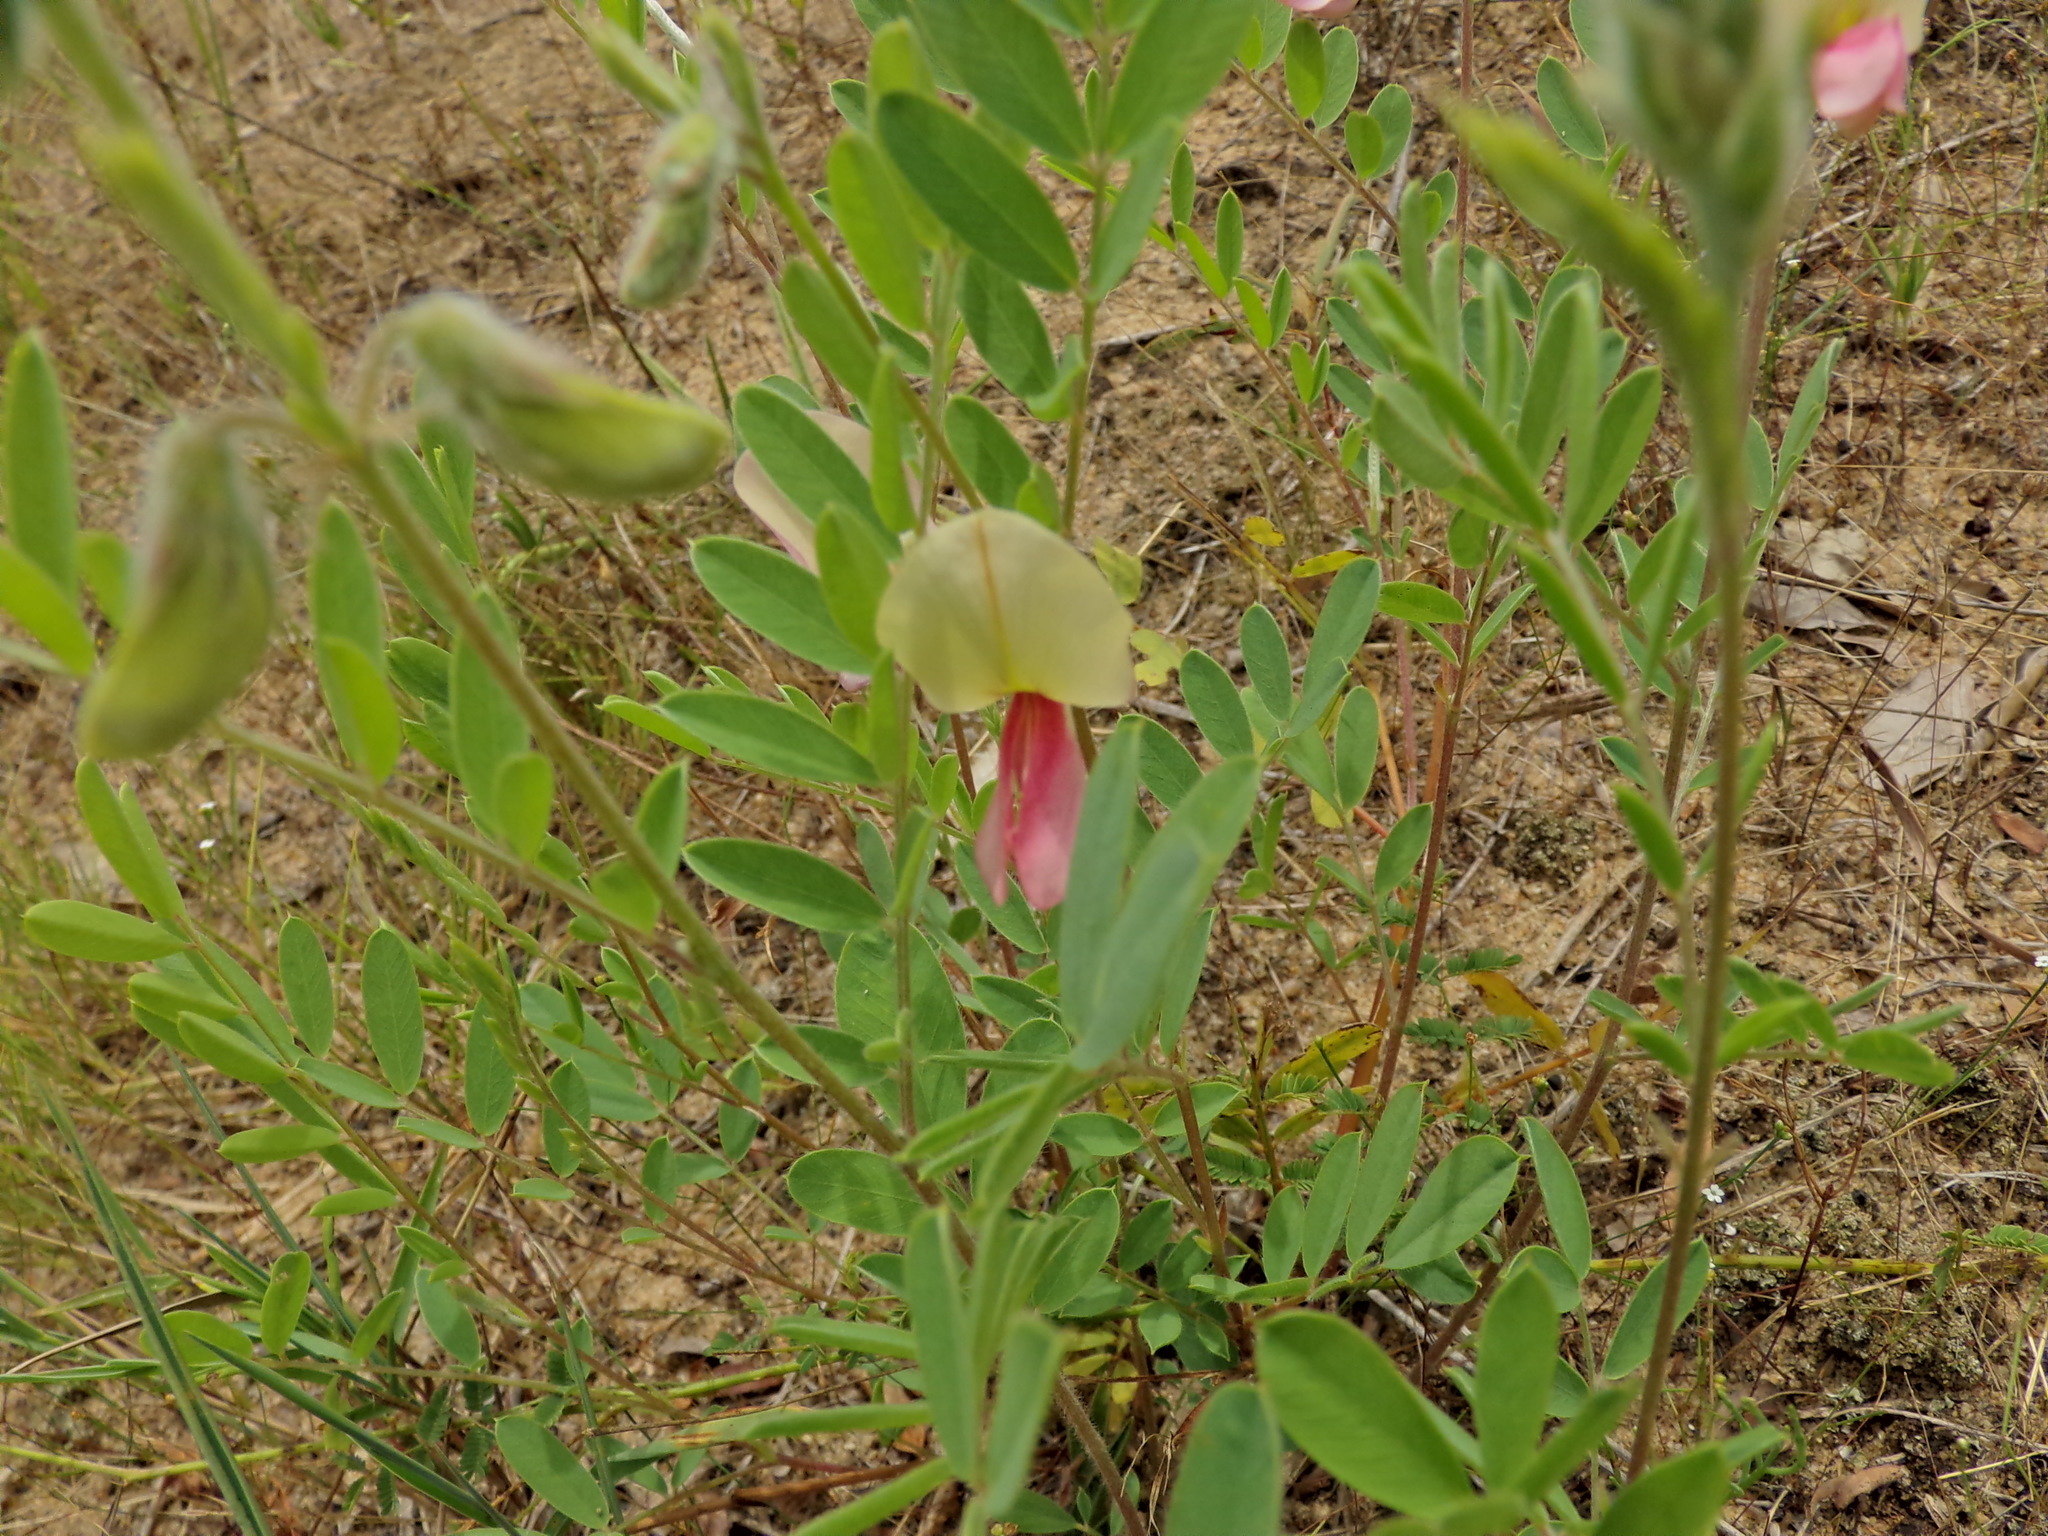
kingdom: Plantae
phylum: Tracheophyta
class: Magnoliopsida
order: Fabales
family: Fabaceae
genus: Tephrosia
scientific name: Tephrosia virginiana
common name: Rabbit-pea
